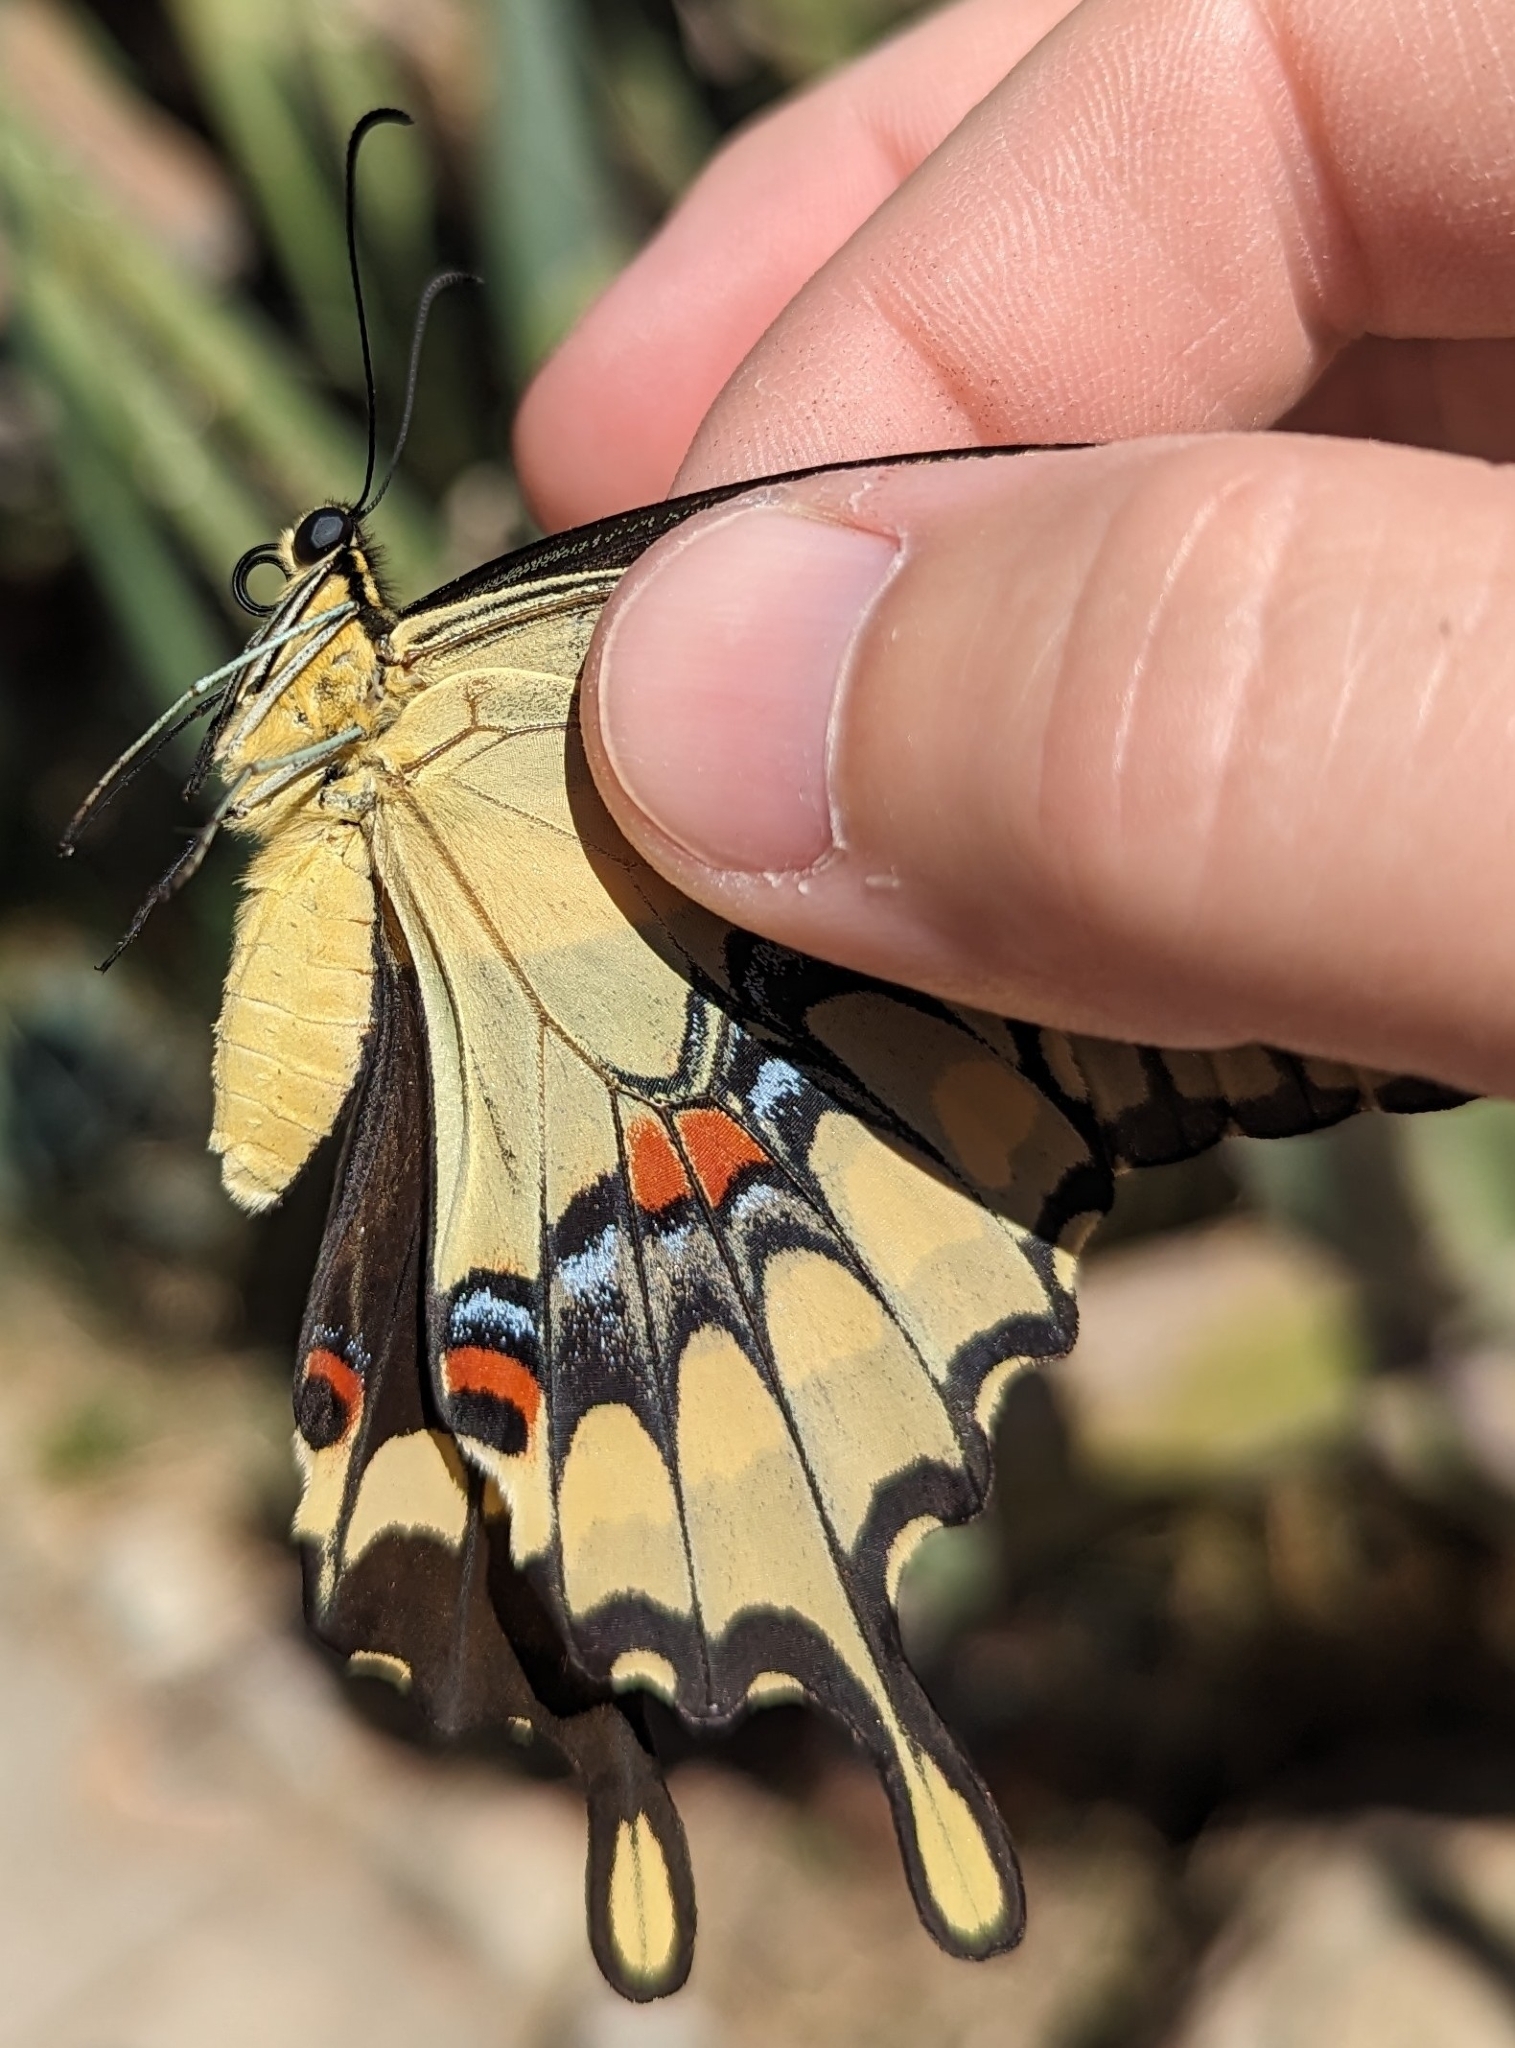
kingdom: Animalia
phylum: Arthropoda
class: Insecta
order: Lepidoptera
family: Papilionidae
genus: Papilio
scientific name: Papilio rumiko
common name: Western giant swallowtail
